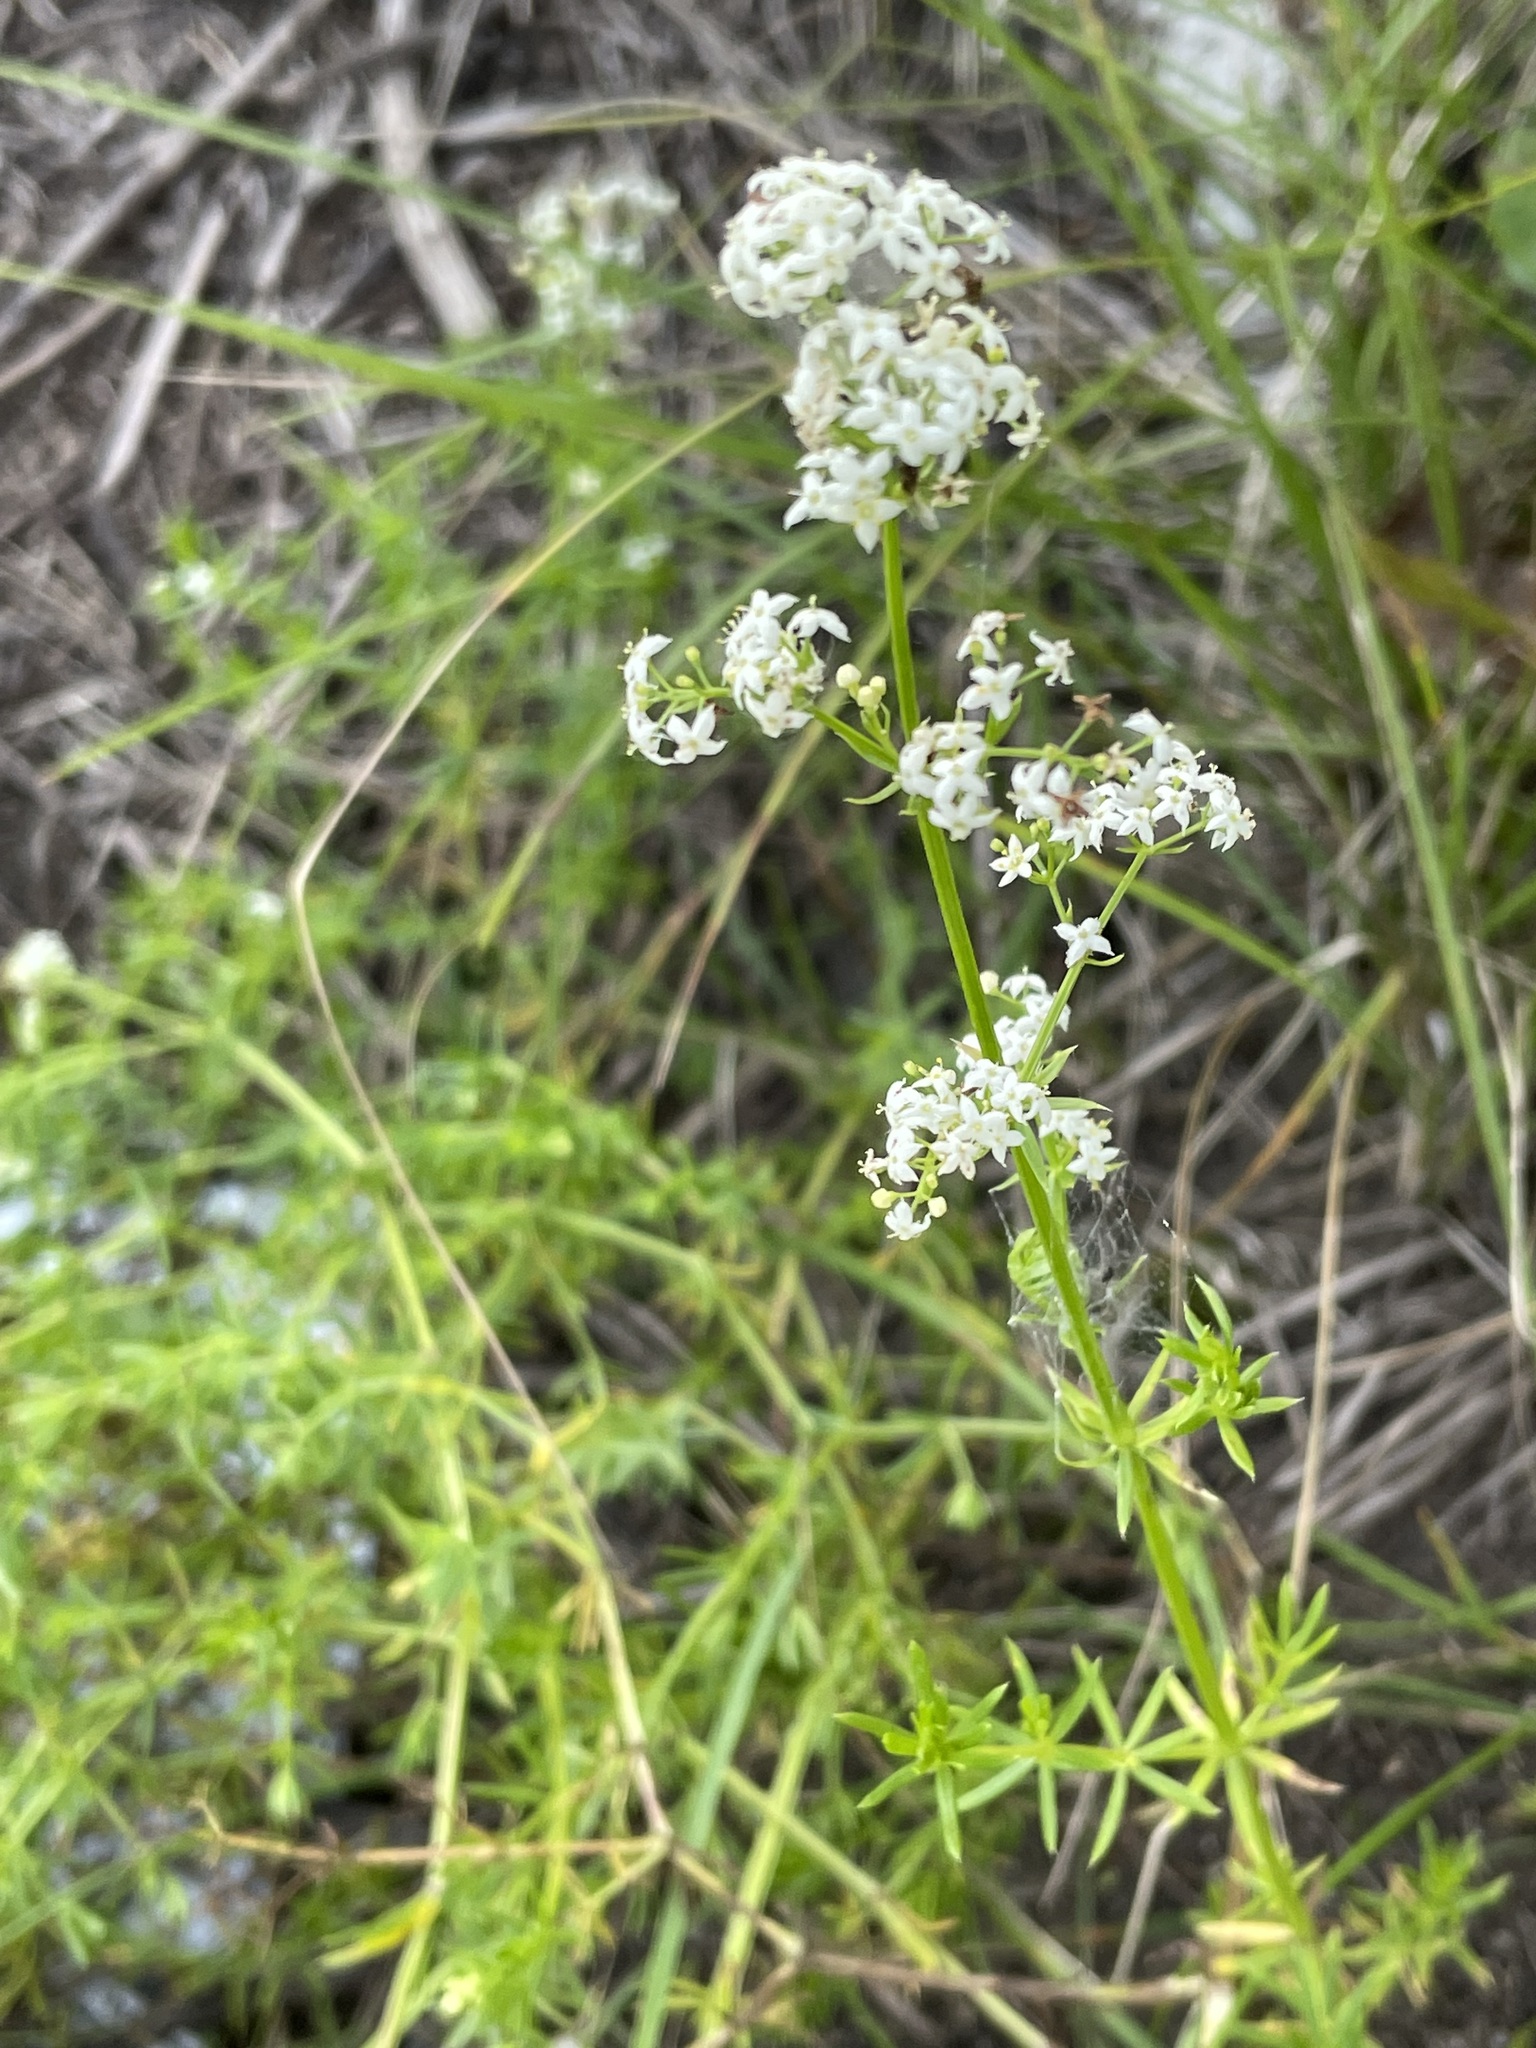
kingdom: Plantae
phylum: Tracheophyta
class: Magnoliopsida
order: Gentianales
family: Rubiaceae
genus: Galium
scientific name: Galium mollugo
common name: Hedge bedstraw
